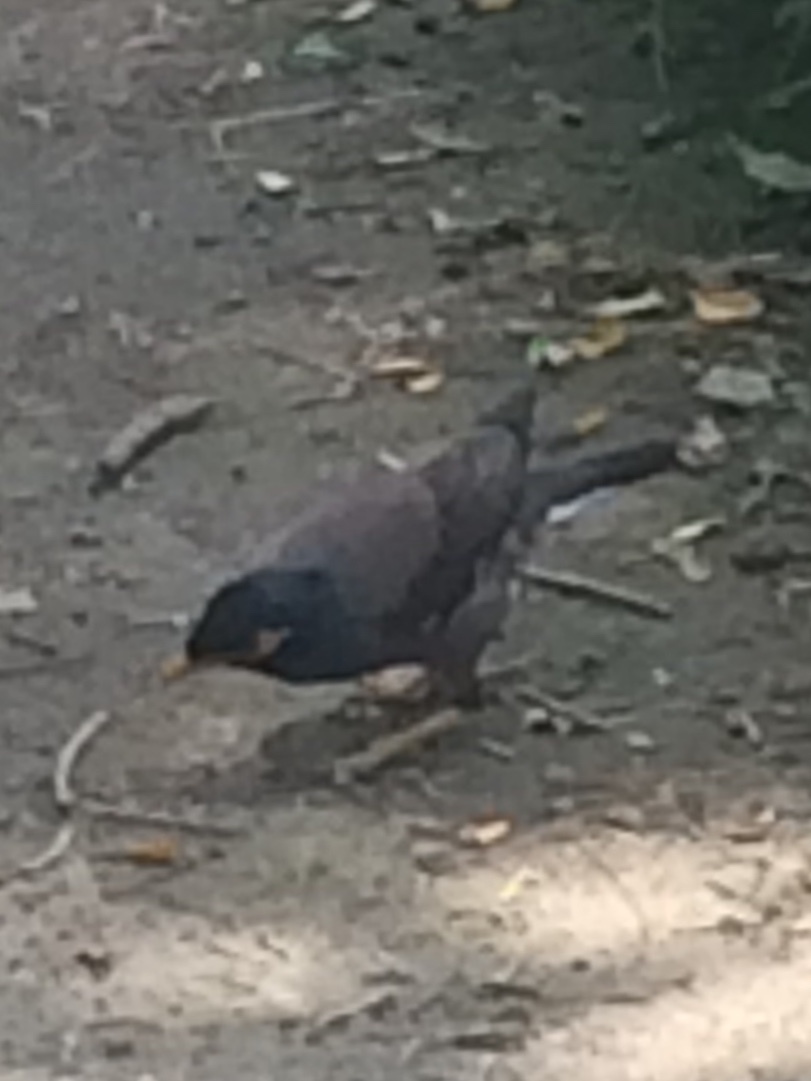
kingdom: Animalia
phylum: Chordata
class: Aves
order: Passeriformes
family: Sturnidae
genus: Acridotheres
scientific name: Acridotheres tristis
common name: Common myna
